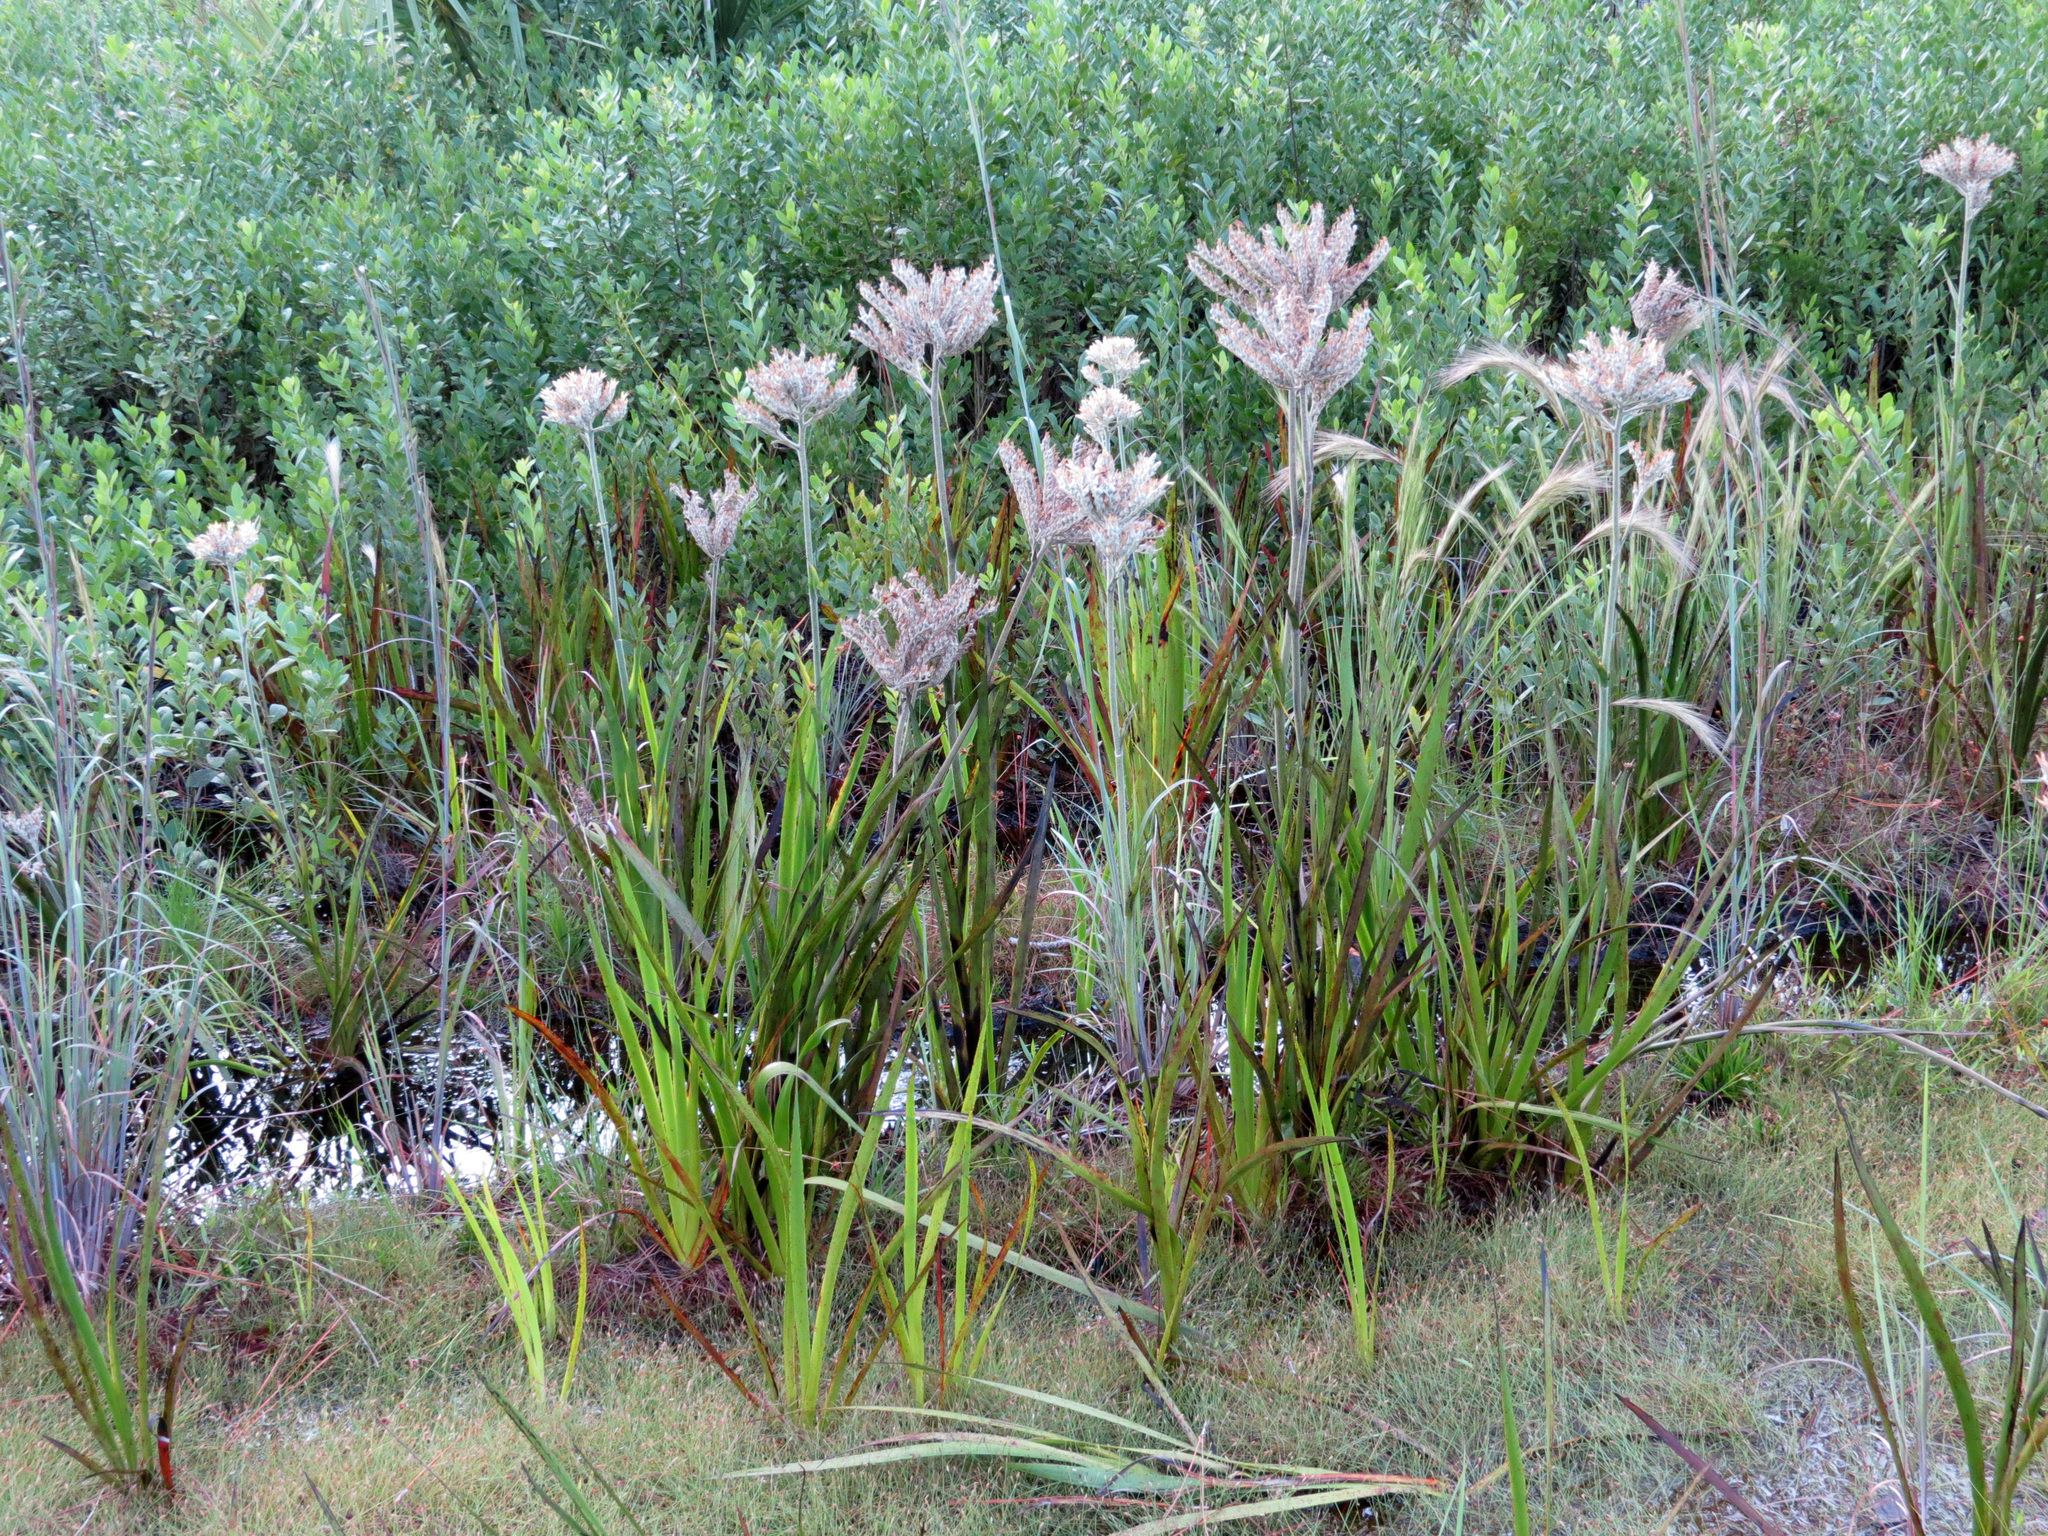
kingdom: Plantae
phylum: Tracheophyta
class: Liliopsida
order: Commelinales
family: Haemodoraceae
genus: Lachnanthes
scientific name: Lachnanthes caroliana
